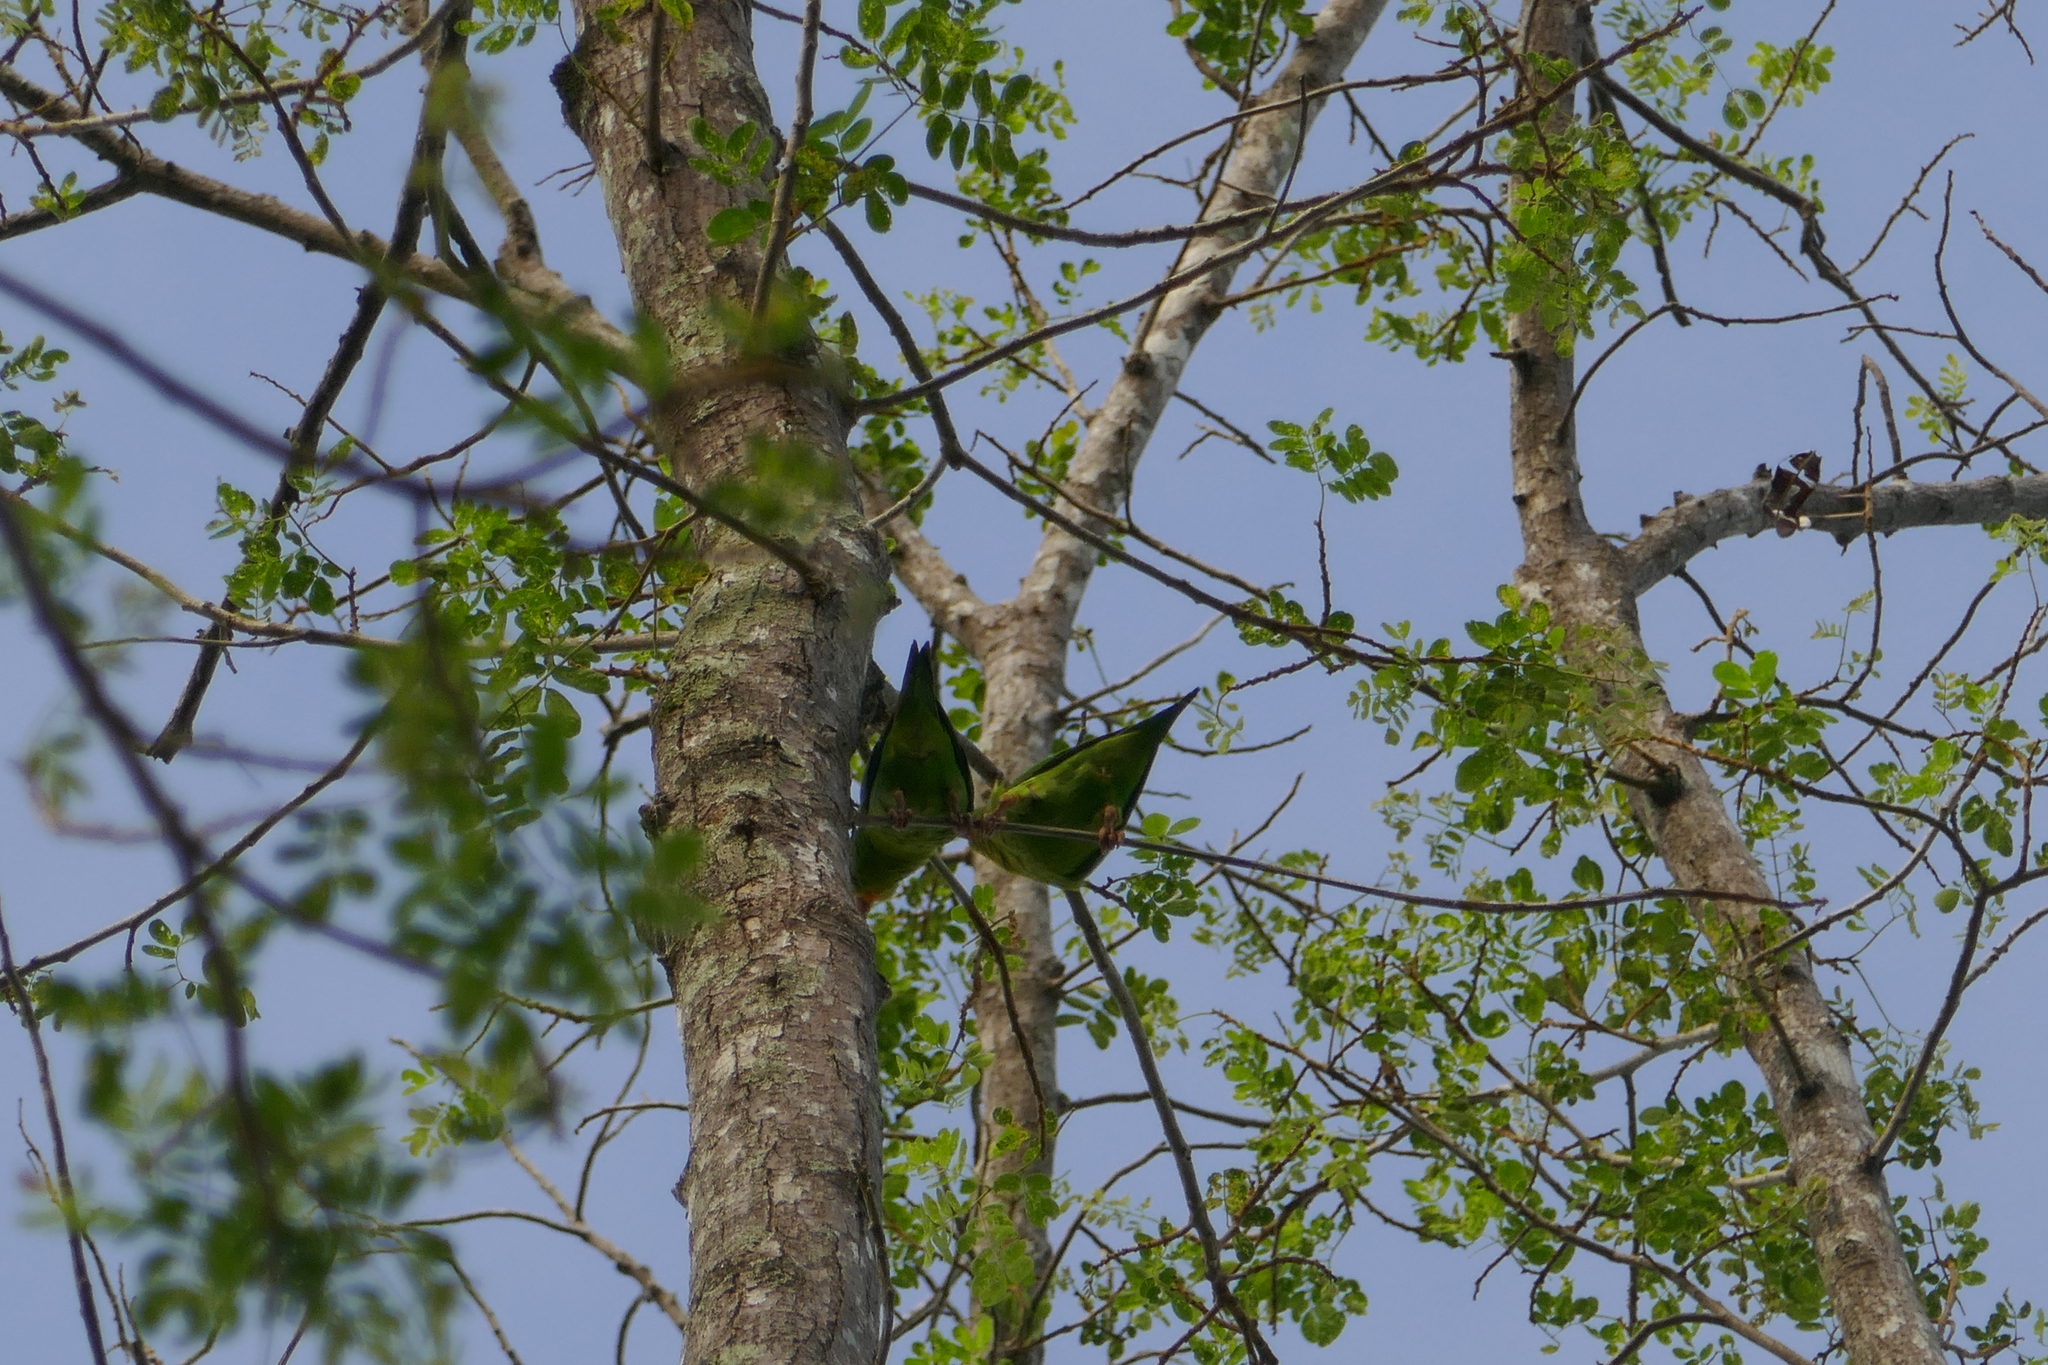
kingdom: Animalia
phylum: Chordata
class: Aves
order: Psittaciformes
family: Psittacidae
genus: Brotogeris
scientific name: Brotogeris jugularis
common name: Orange-chinned parakeet
